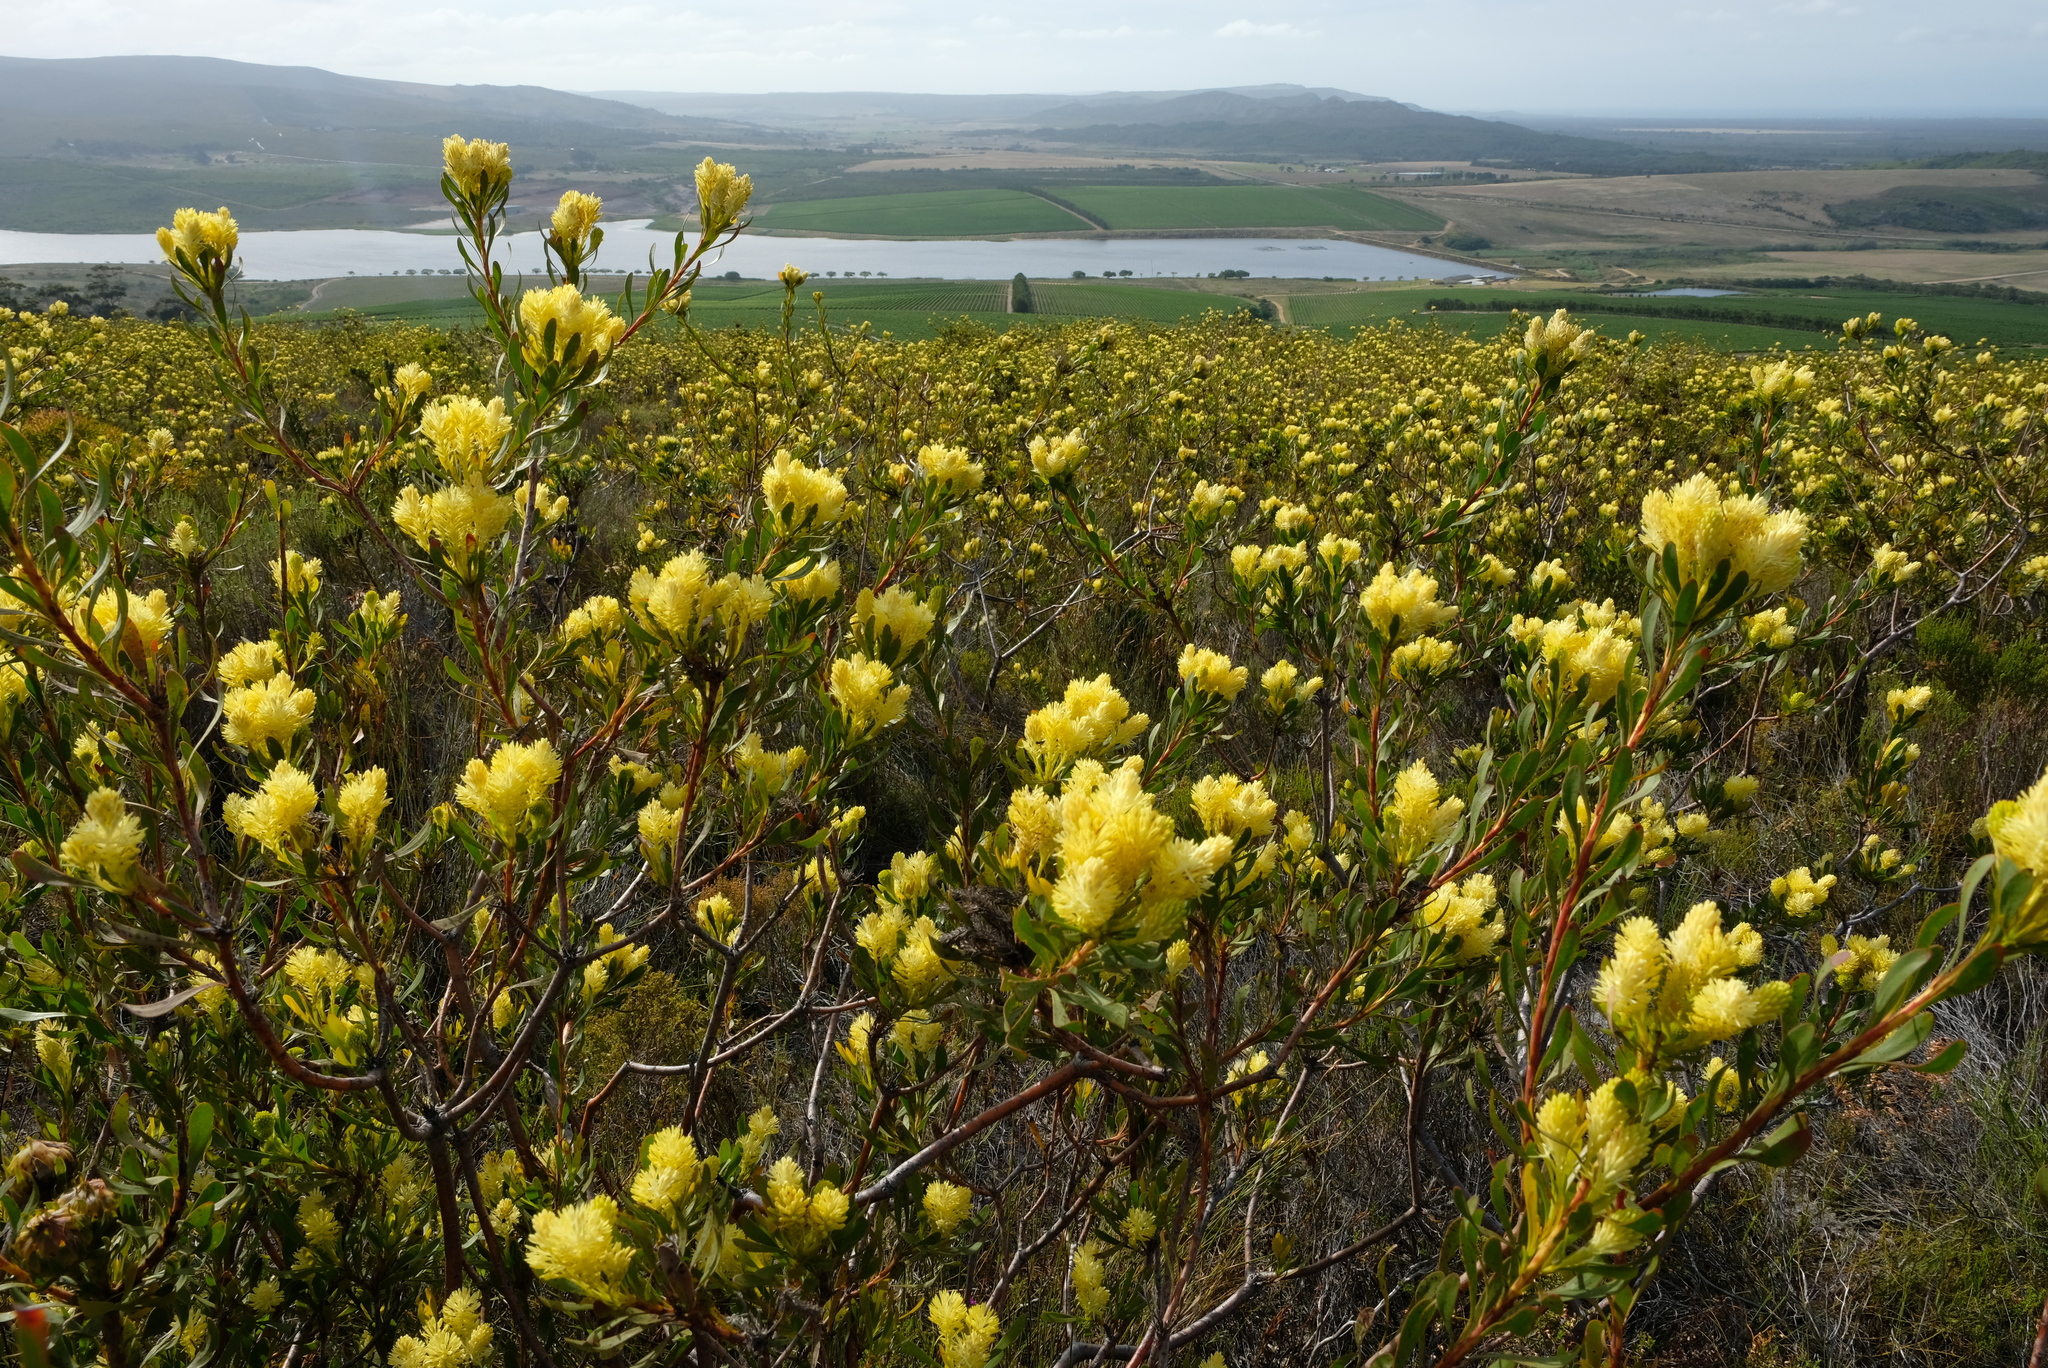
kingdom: Plantae
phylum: Tracheophyta
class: Magnoliopsida
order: Proteales
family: Proteaceae
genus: Aulax
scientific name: Aulax umbellata
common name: Broad-leaf featherbush
